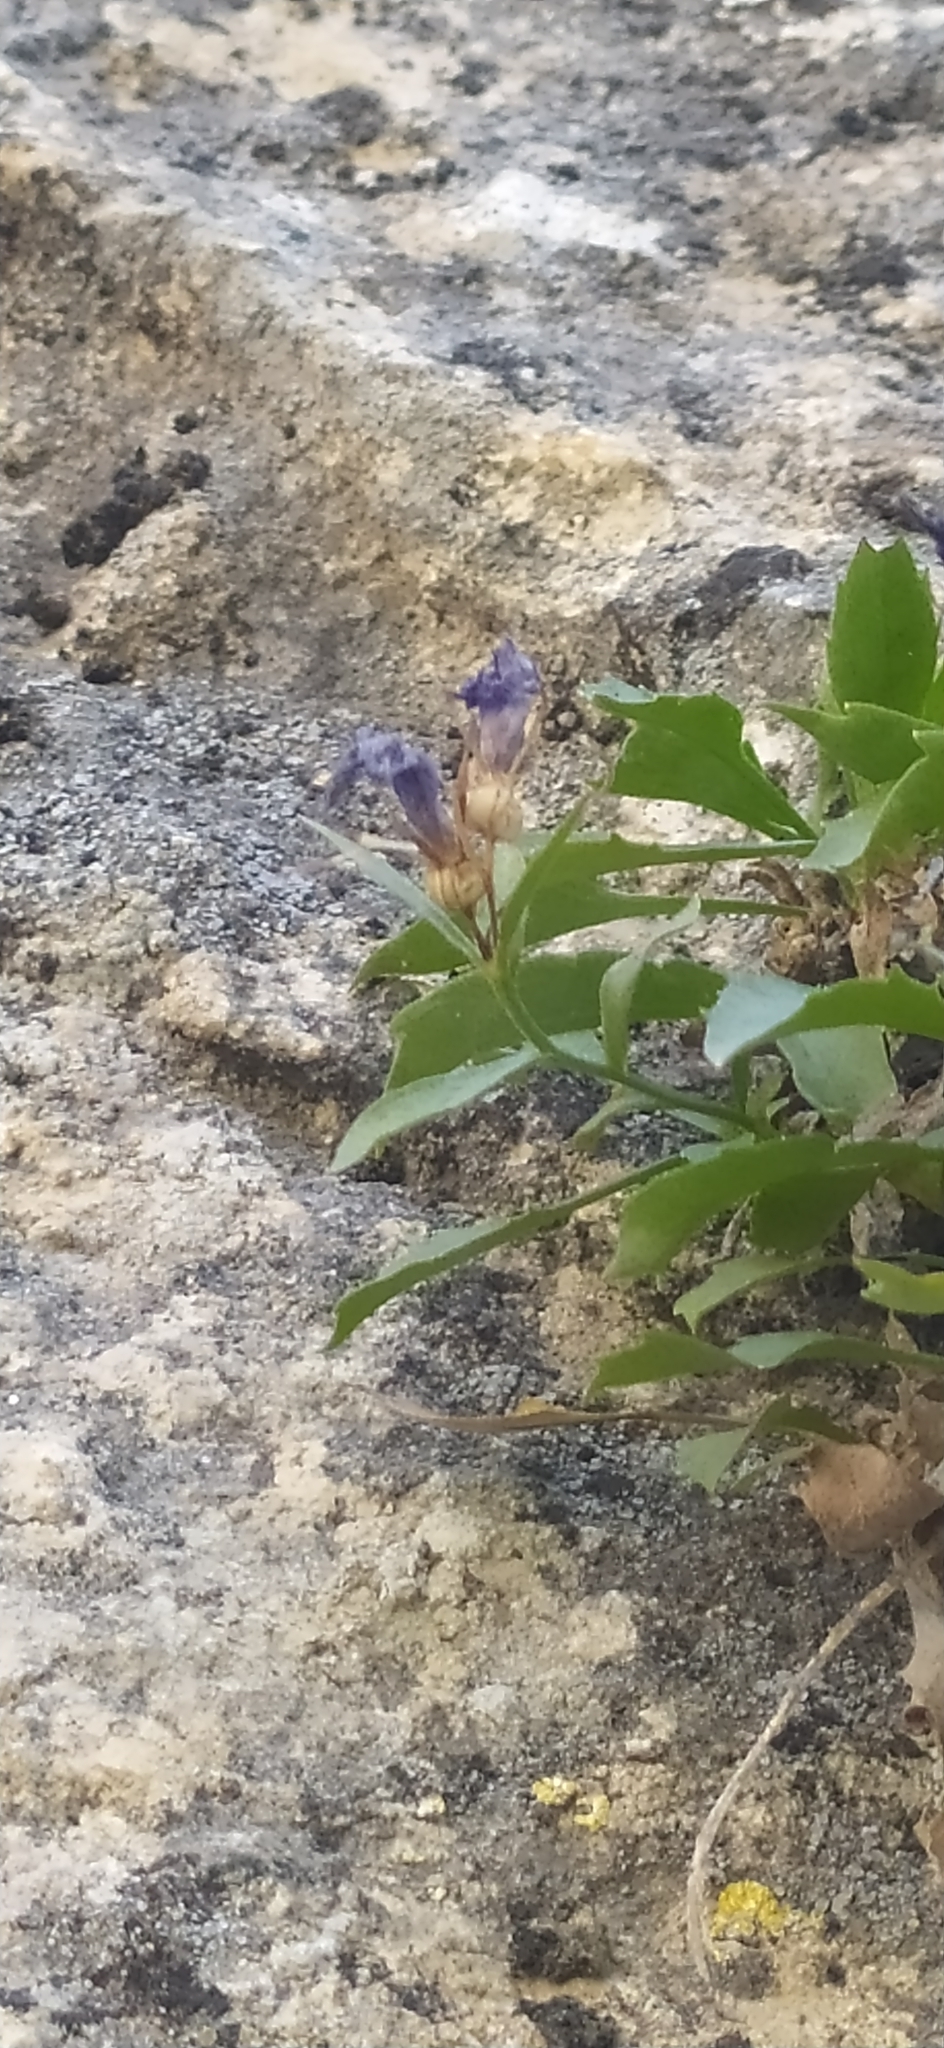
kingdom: Plantae
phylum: Tracheophyta
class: Magnoliopsida
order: Asterales
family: Campanulaceae
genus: Campanula
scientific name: Campanula lehmanniana
